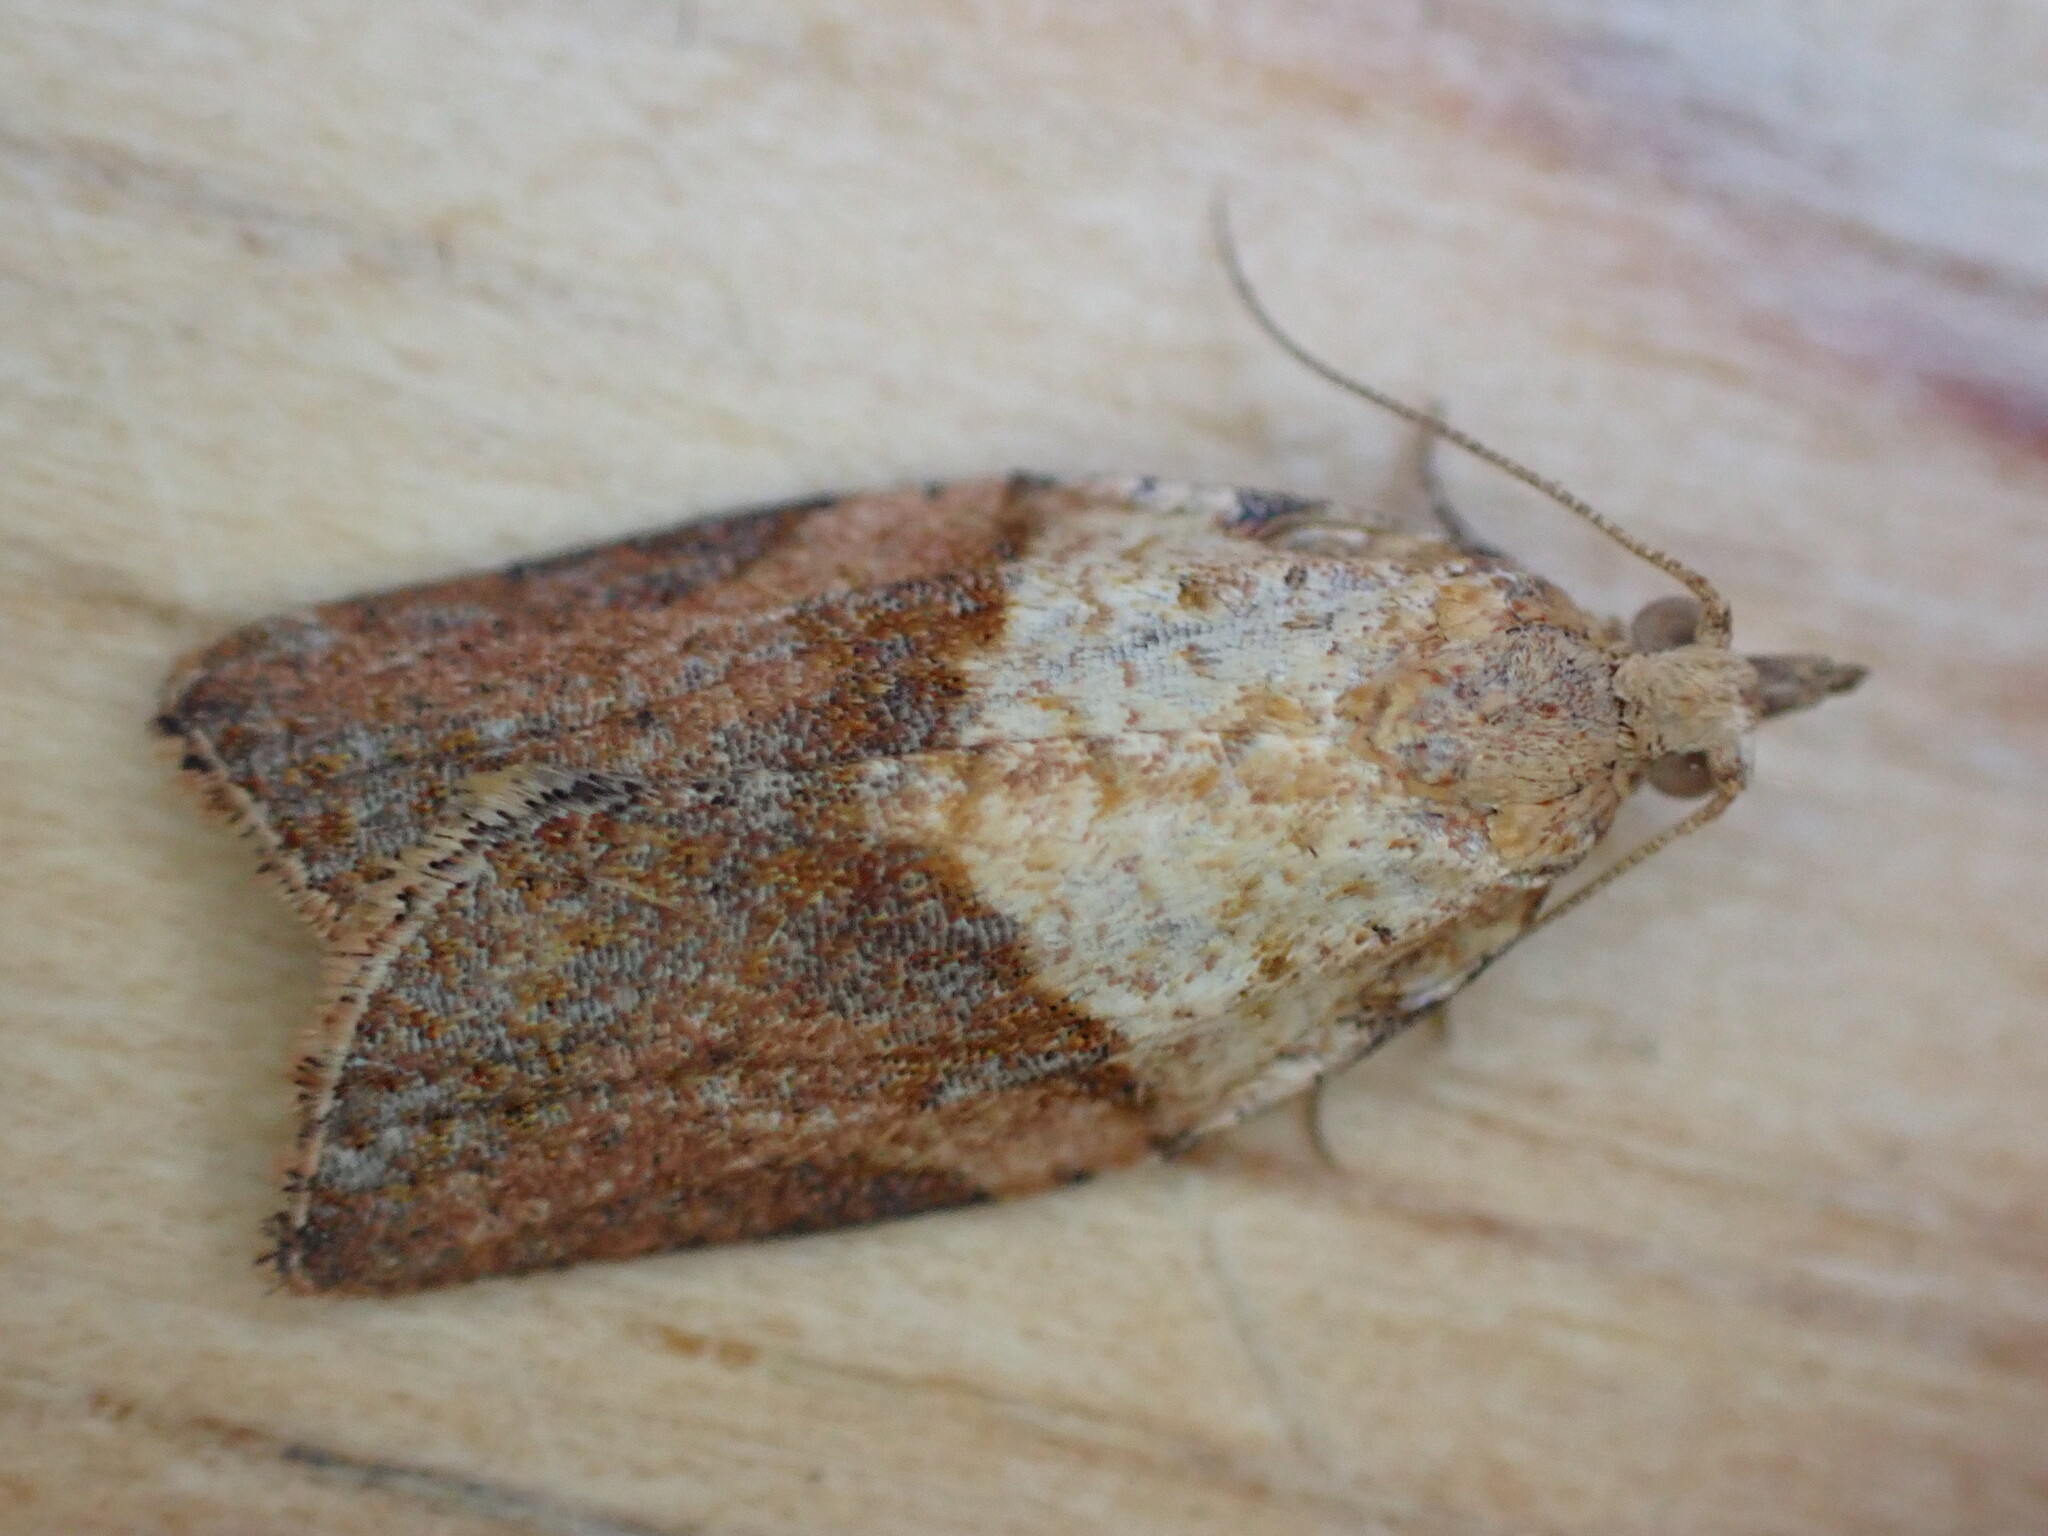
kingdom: Animalia
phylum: Arthropoda
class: Insecta
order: Lepidoptera
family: Tortricidae
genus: Epiphyas
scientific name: Epiphyas postvittana
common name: Light brown apple moth
